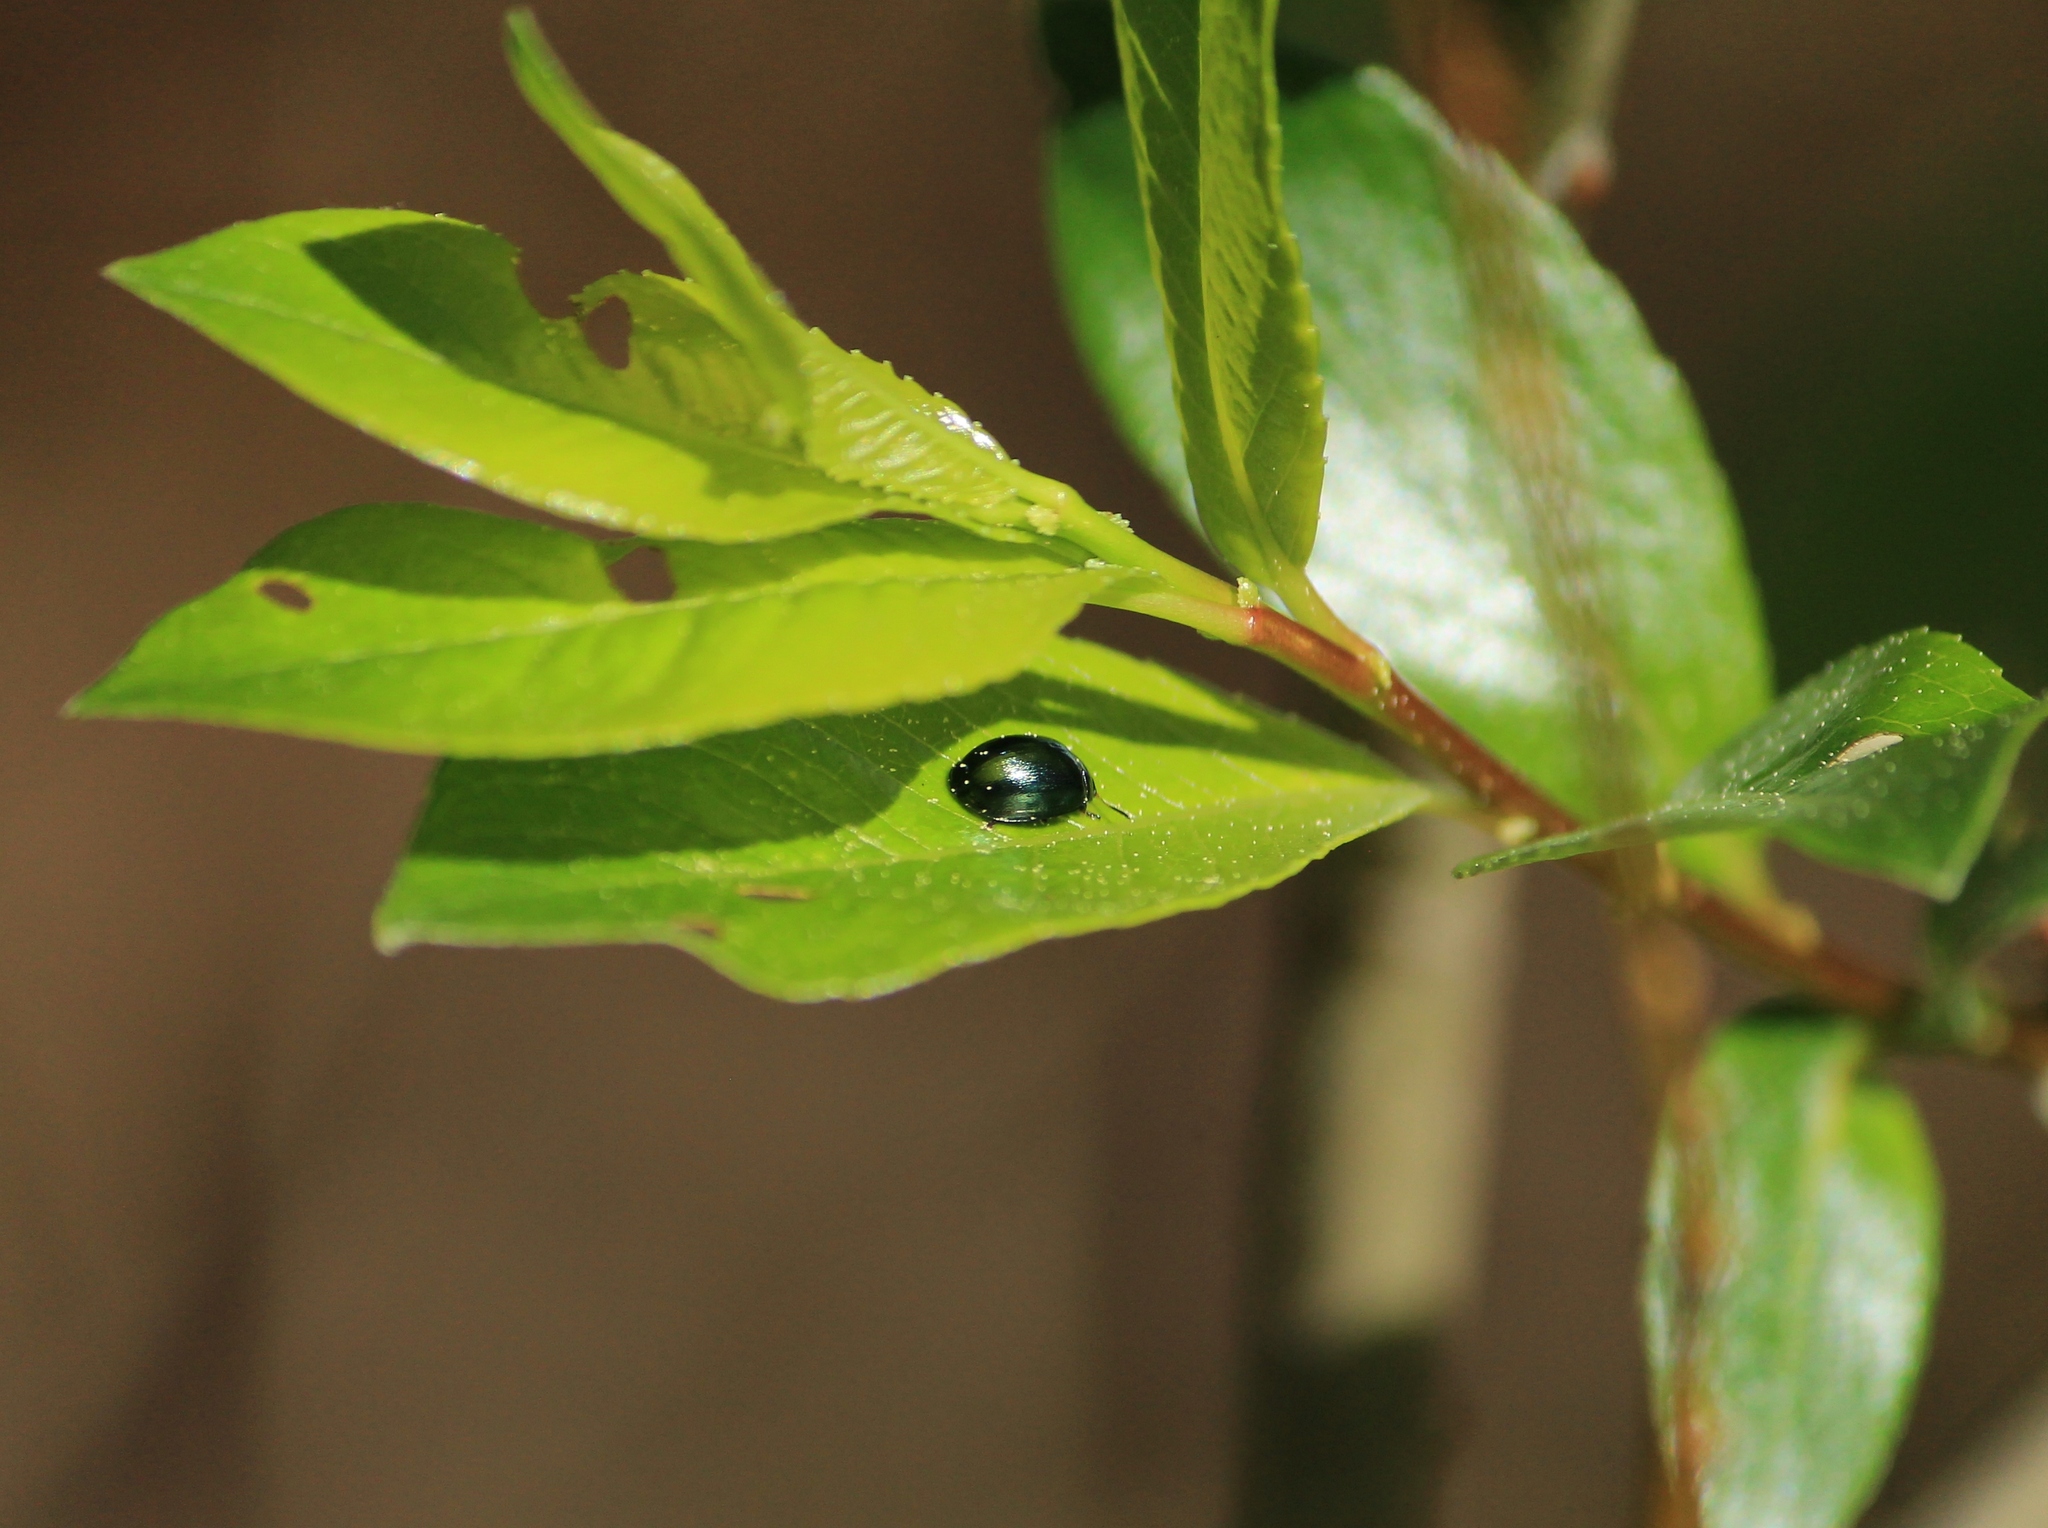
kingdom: Animalia
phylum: Arthropoda
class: Insecta
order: Coleoptera
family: Chrysomelidae
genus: Plagiodera
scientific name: Plagiodera versicolora
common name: Imported willow leaf beetle
